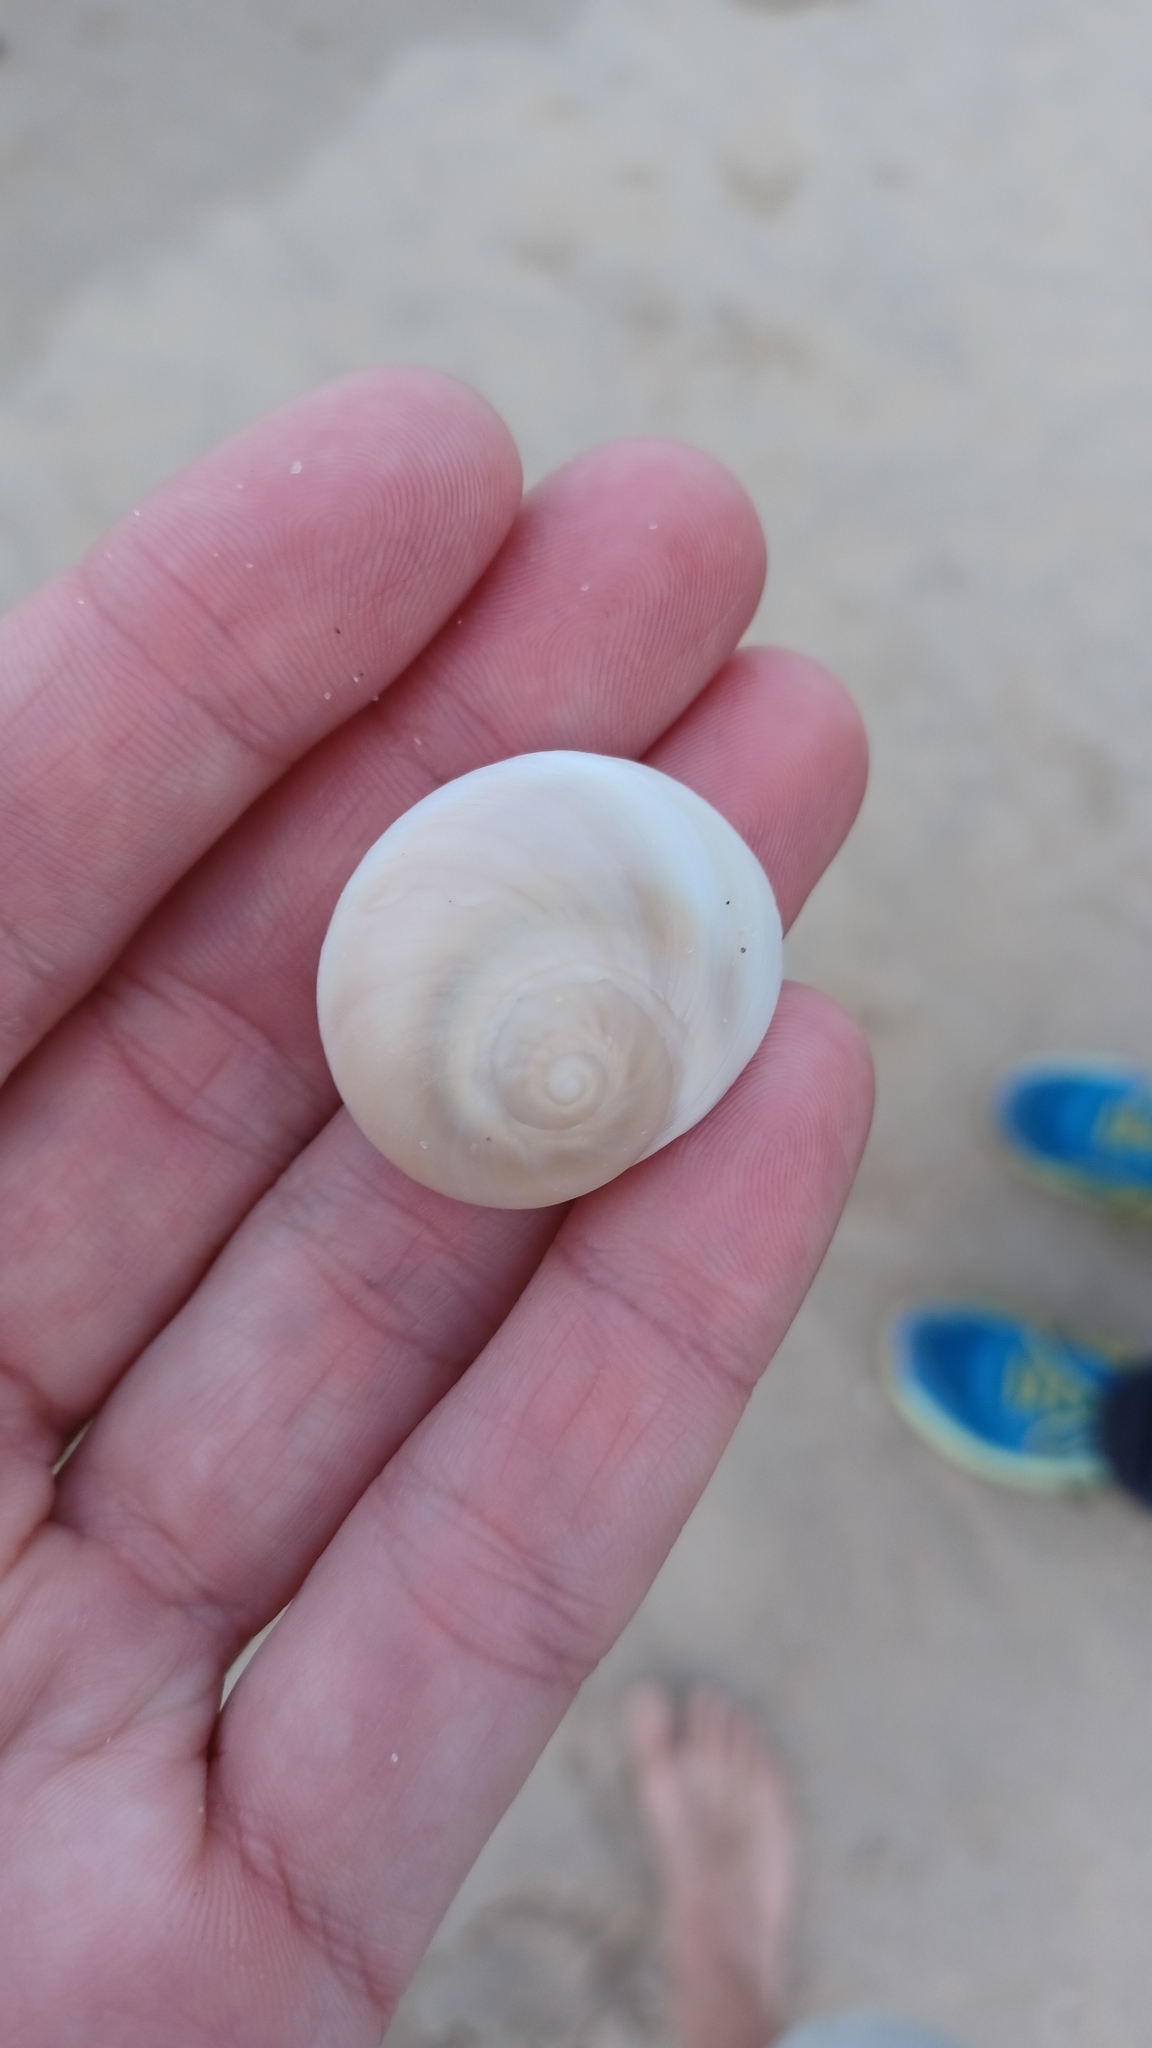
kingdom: Animalia
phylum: Mollusca
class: Gastropoda
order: Littorinimorpha
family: Naticidae
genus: Conuber
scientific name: Conuber incei
